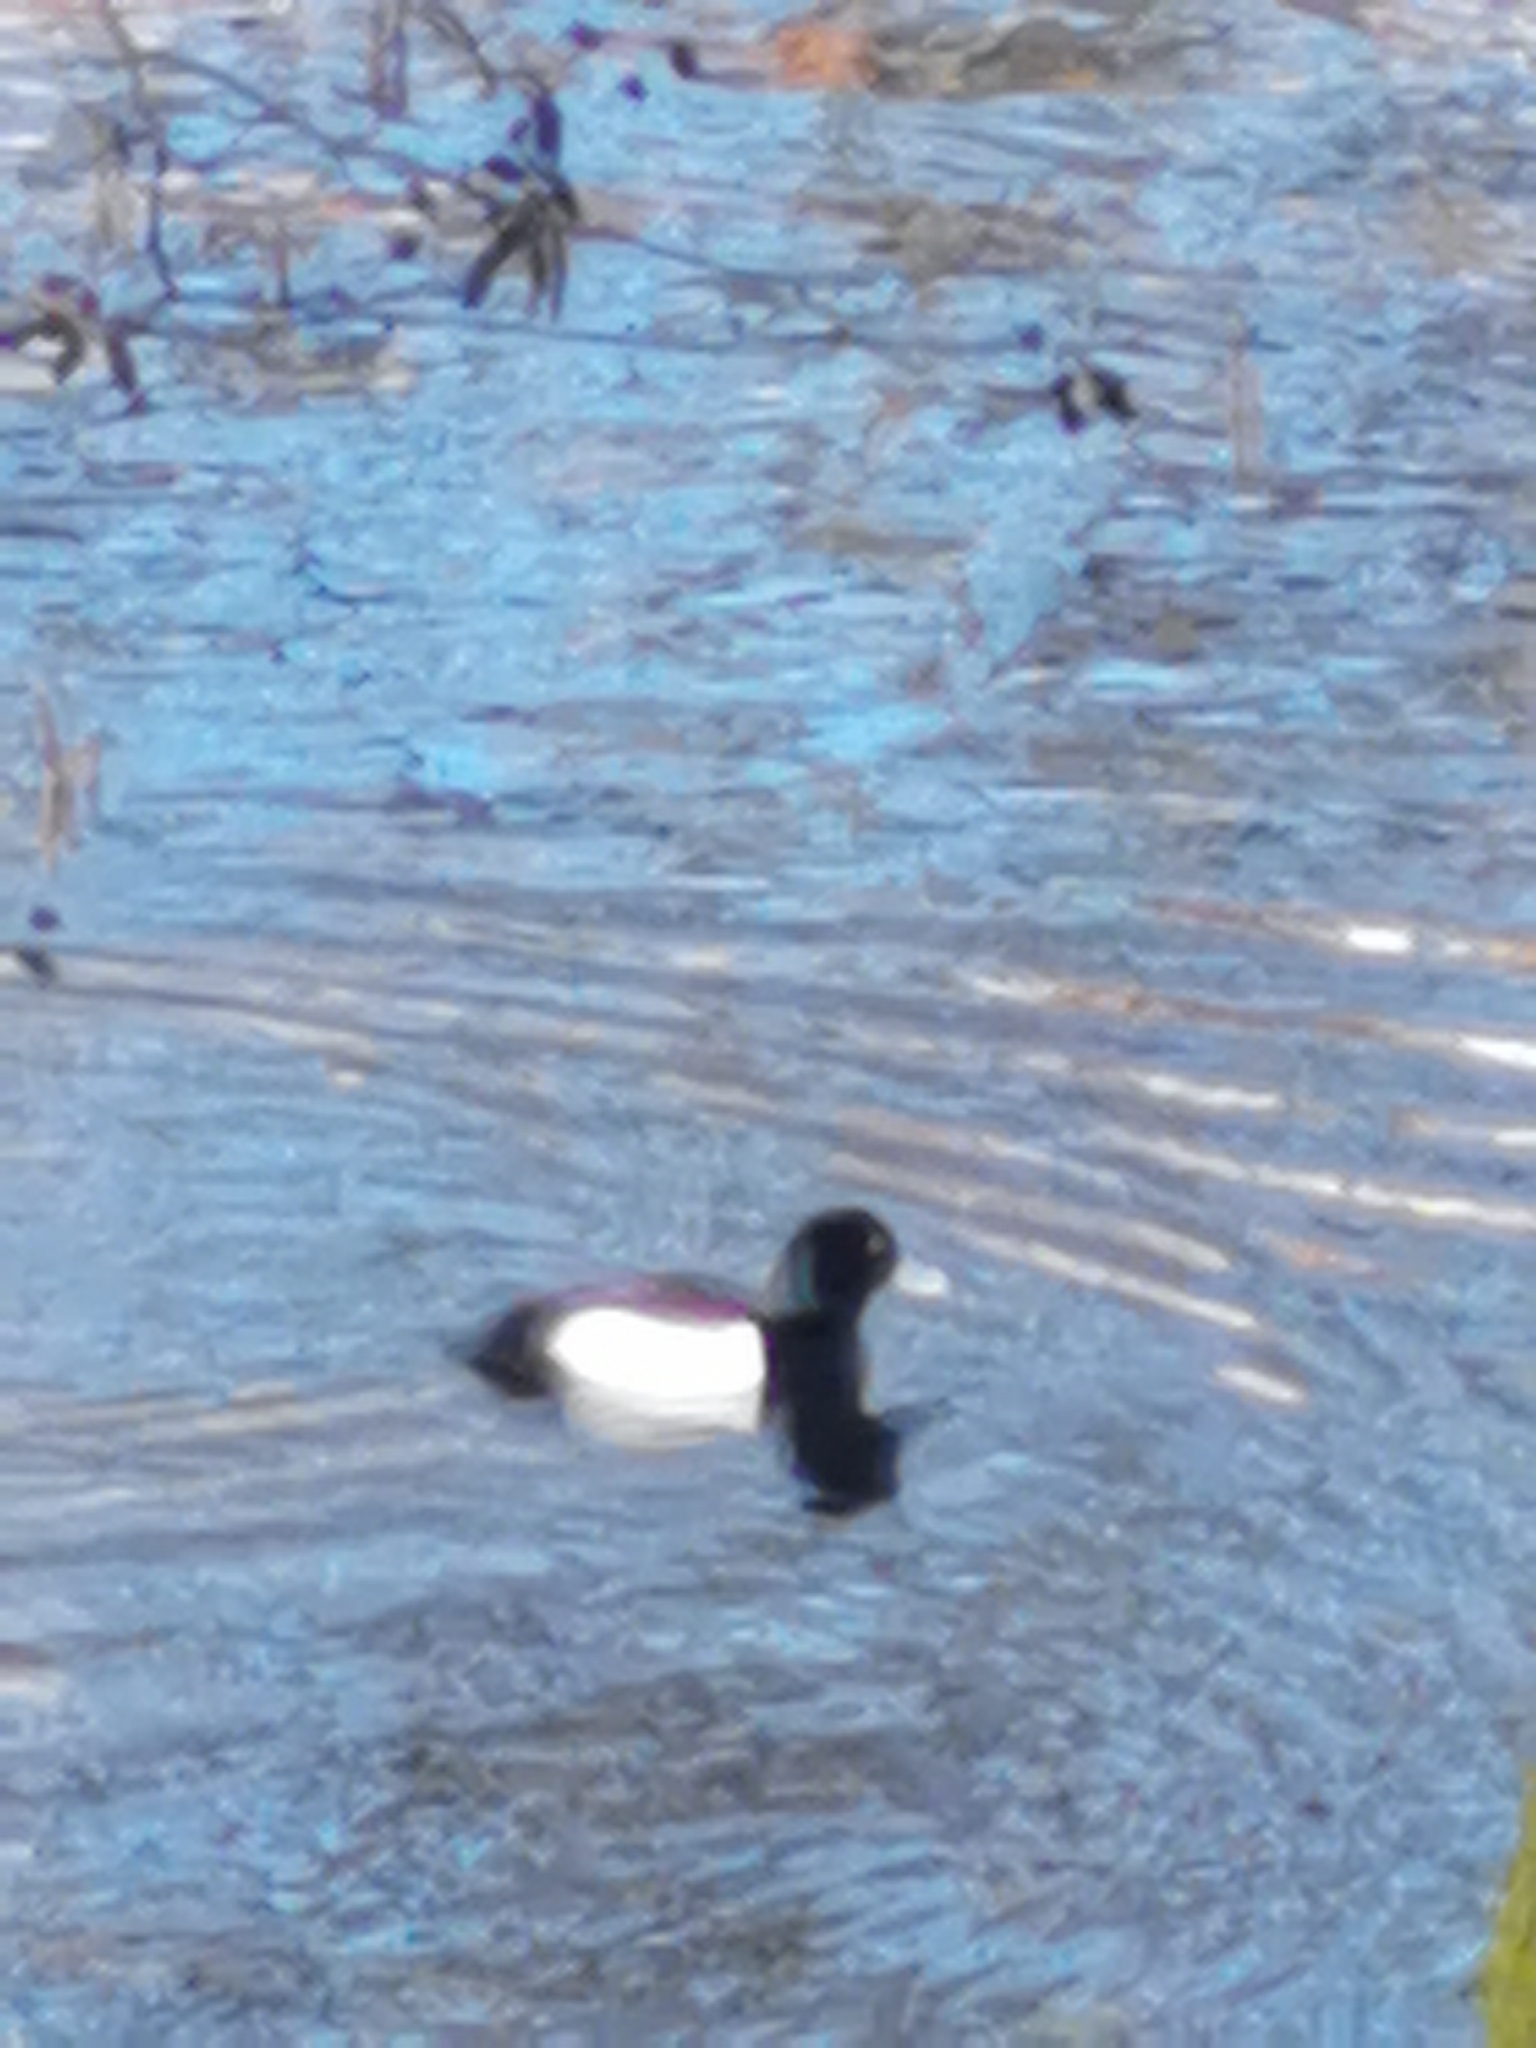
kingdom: Animalia
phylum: Chordata
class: Aves
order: Anseriformes
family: Anatidae
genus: Aythya
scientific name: Aythya fuligula
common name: Tufted duck
